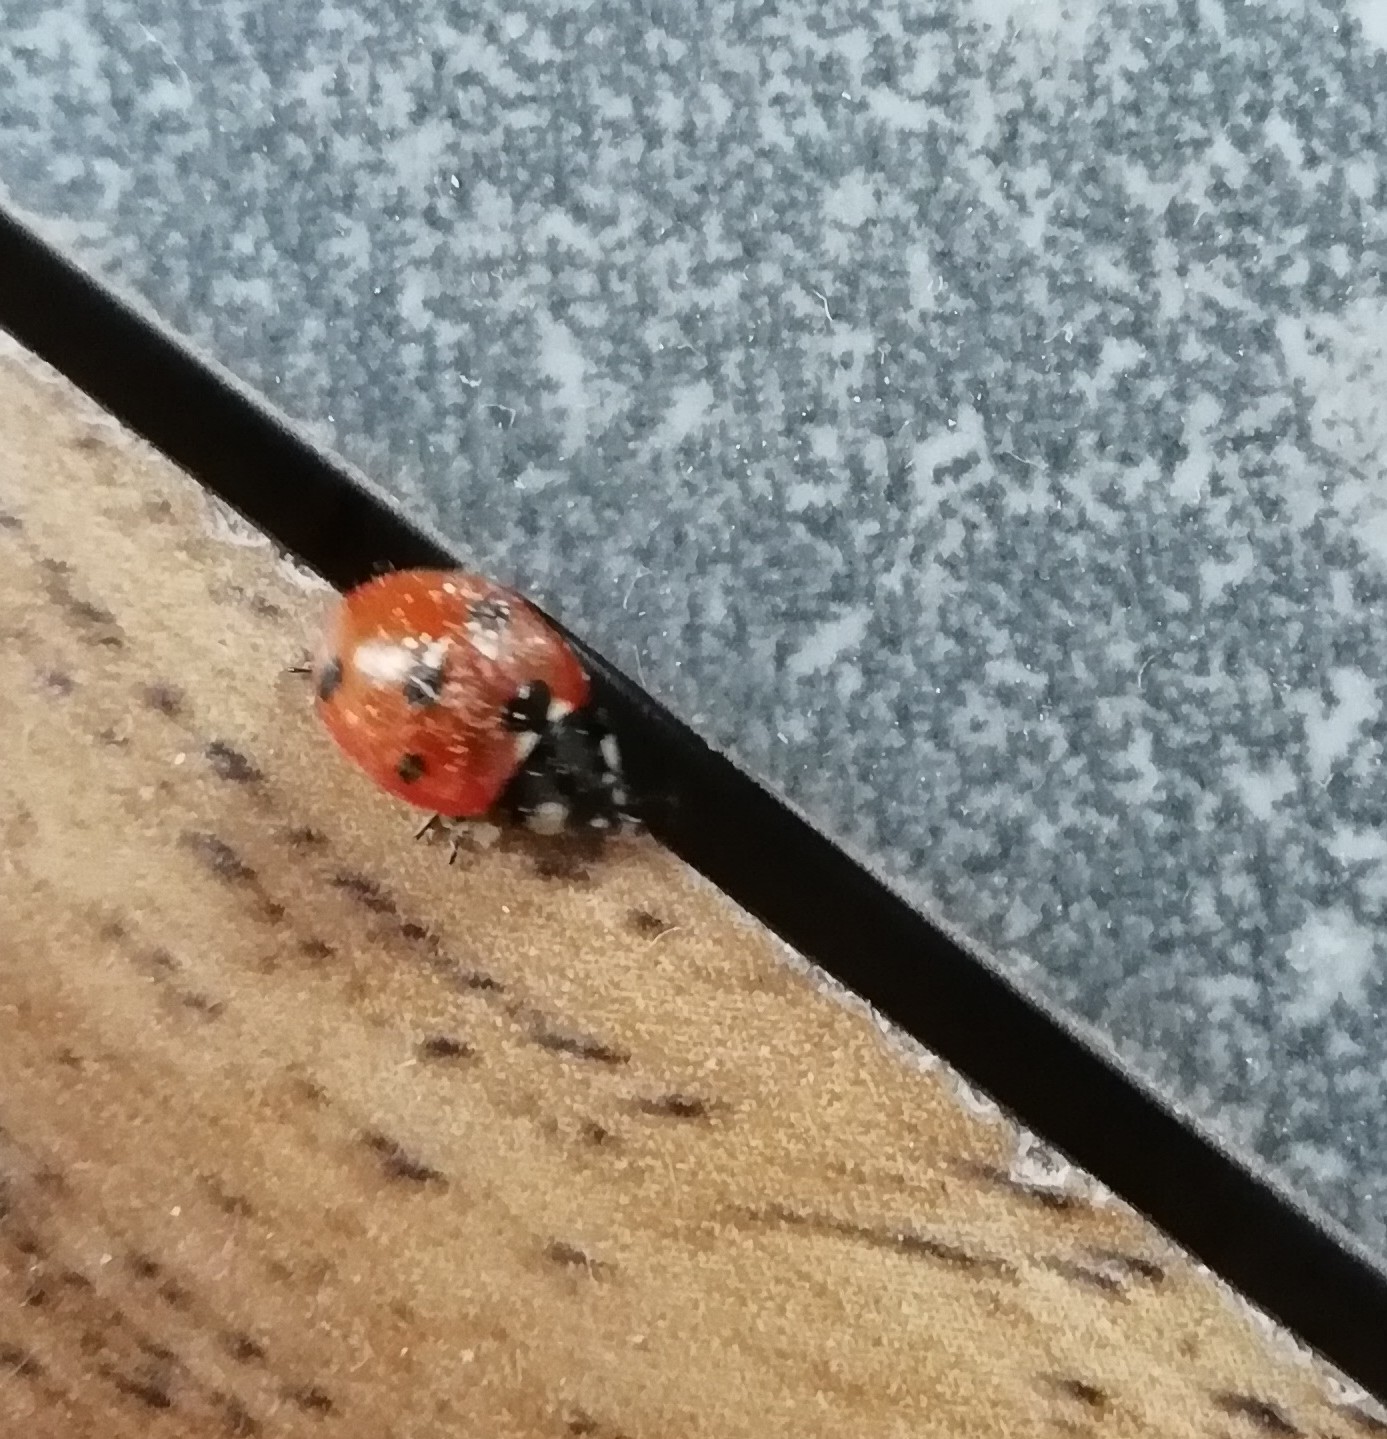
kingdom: Animalia
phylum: Arthropoda
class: Insecta
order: Coleoptera
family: Coccinellidae
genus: Coccinella
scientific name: Coccinella septempunctata
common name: Sevenspotted lady beetle
